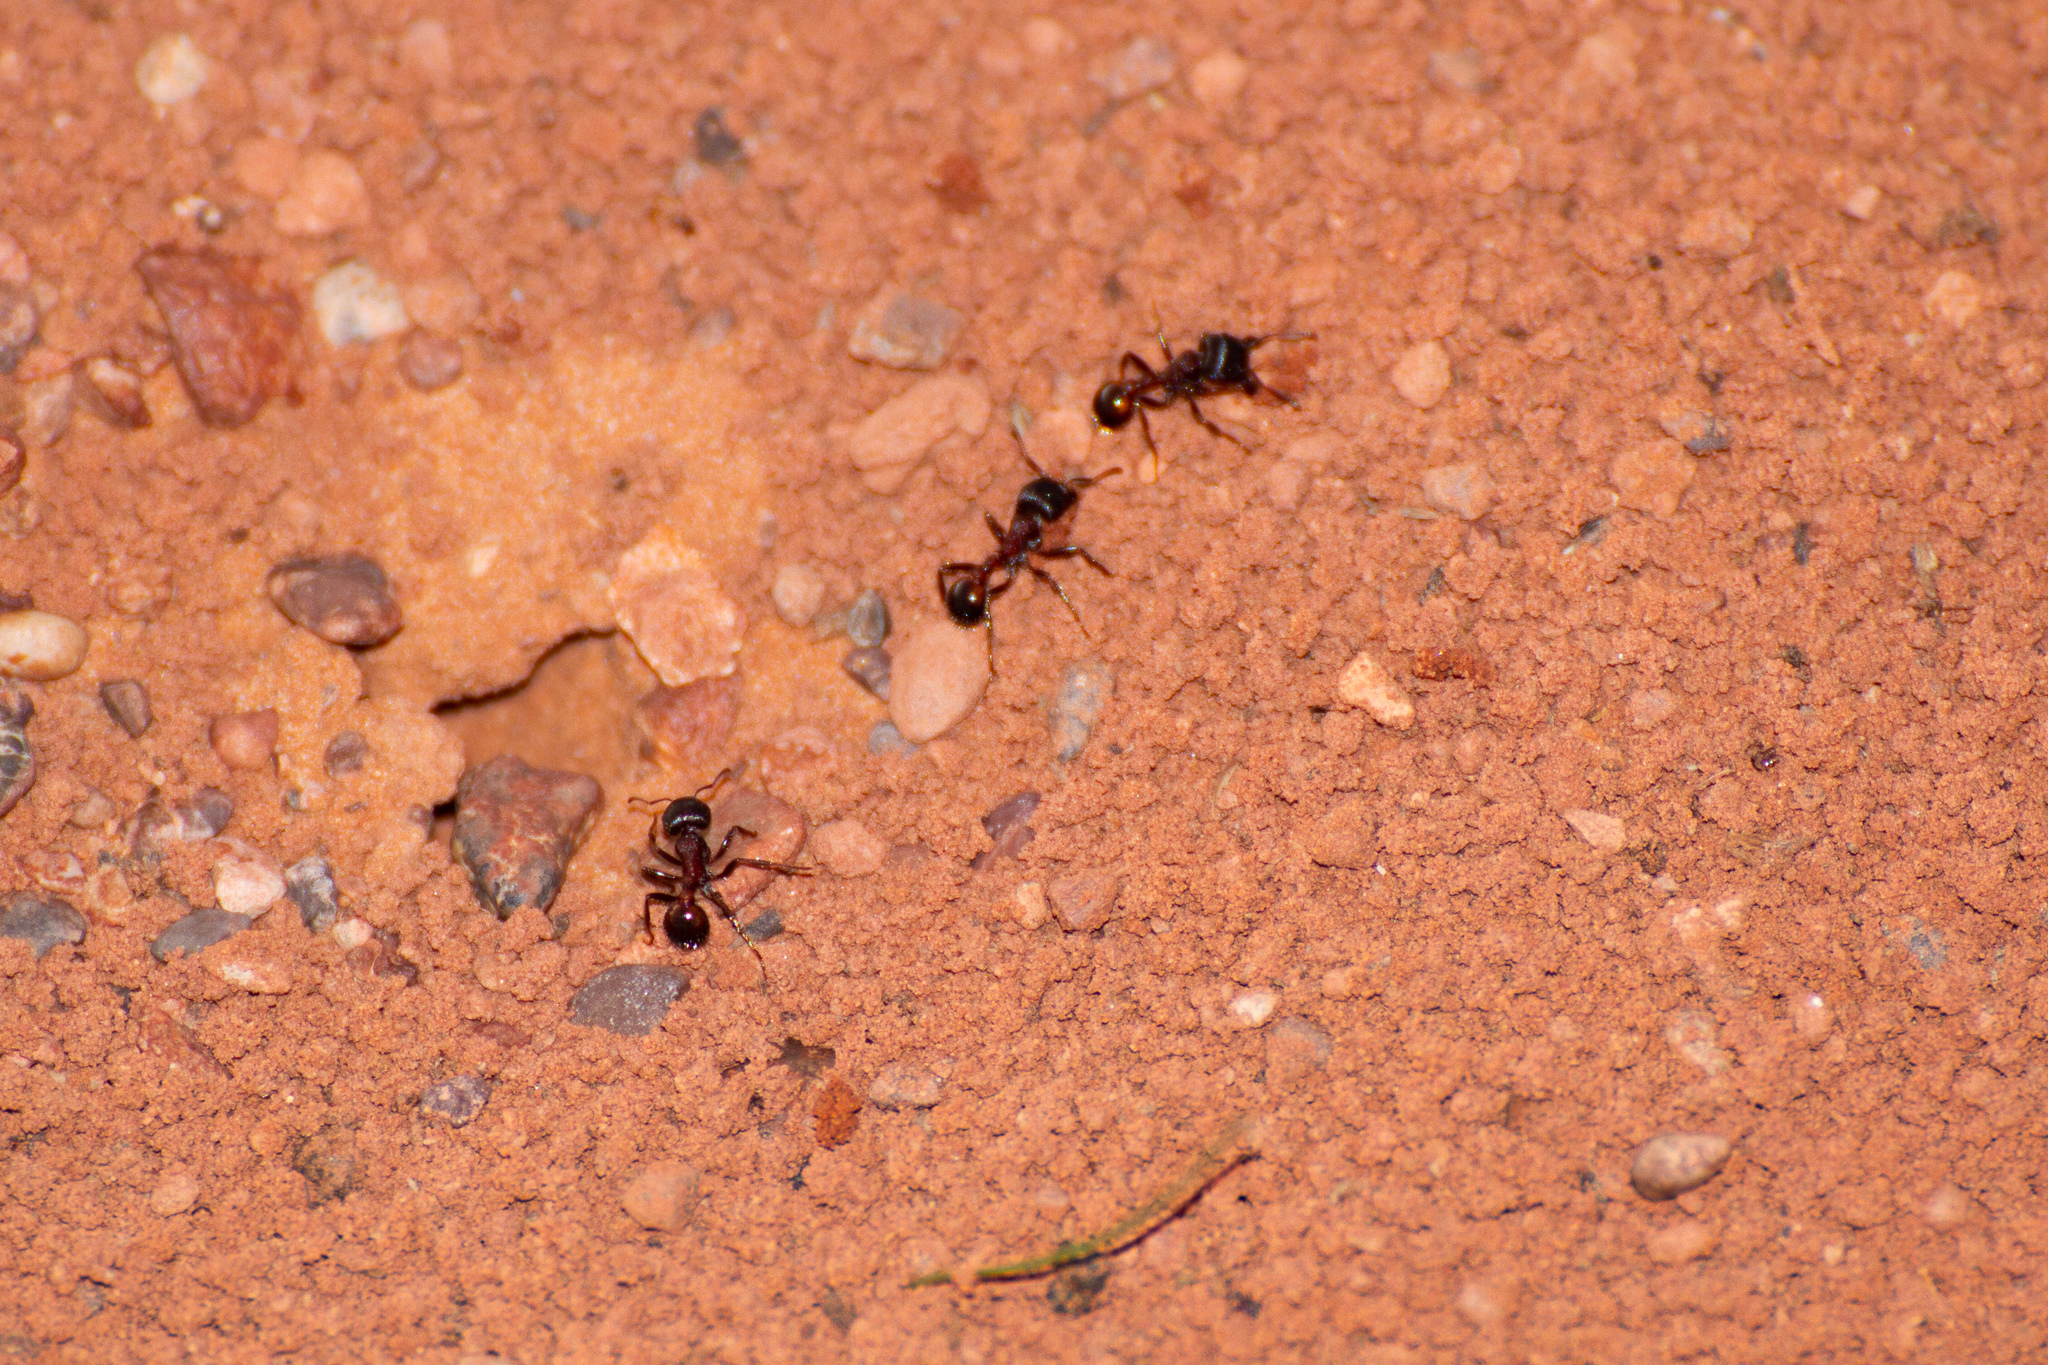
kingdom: Animalia
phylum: Arthropoda
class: Insecta
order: Hymenoptera
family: Formicidae
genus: Pogonomyrmex
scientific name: Pogonomyrmex rugosus
